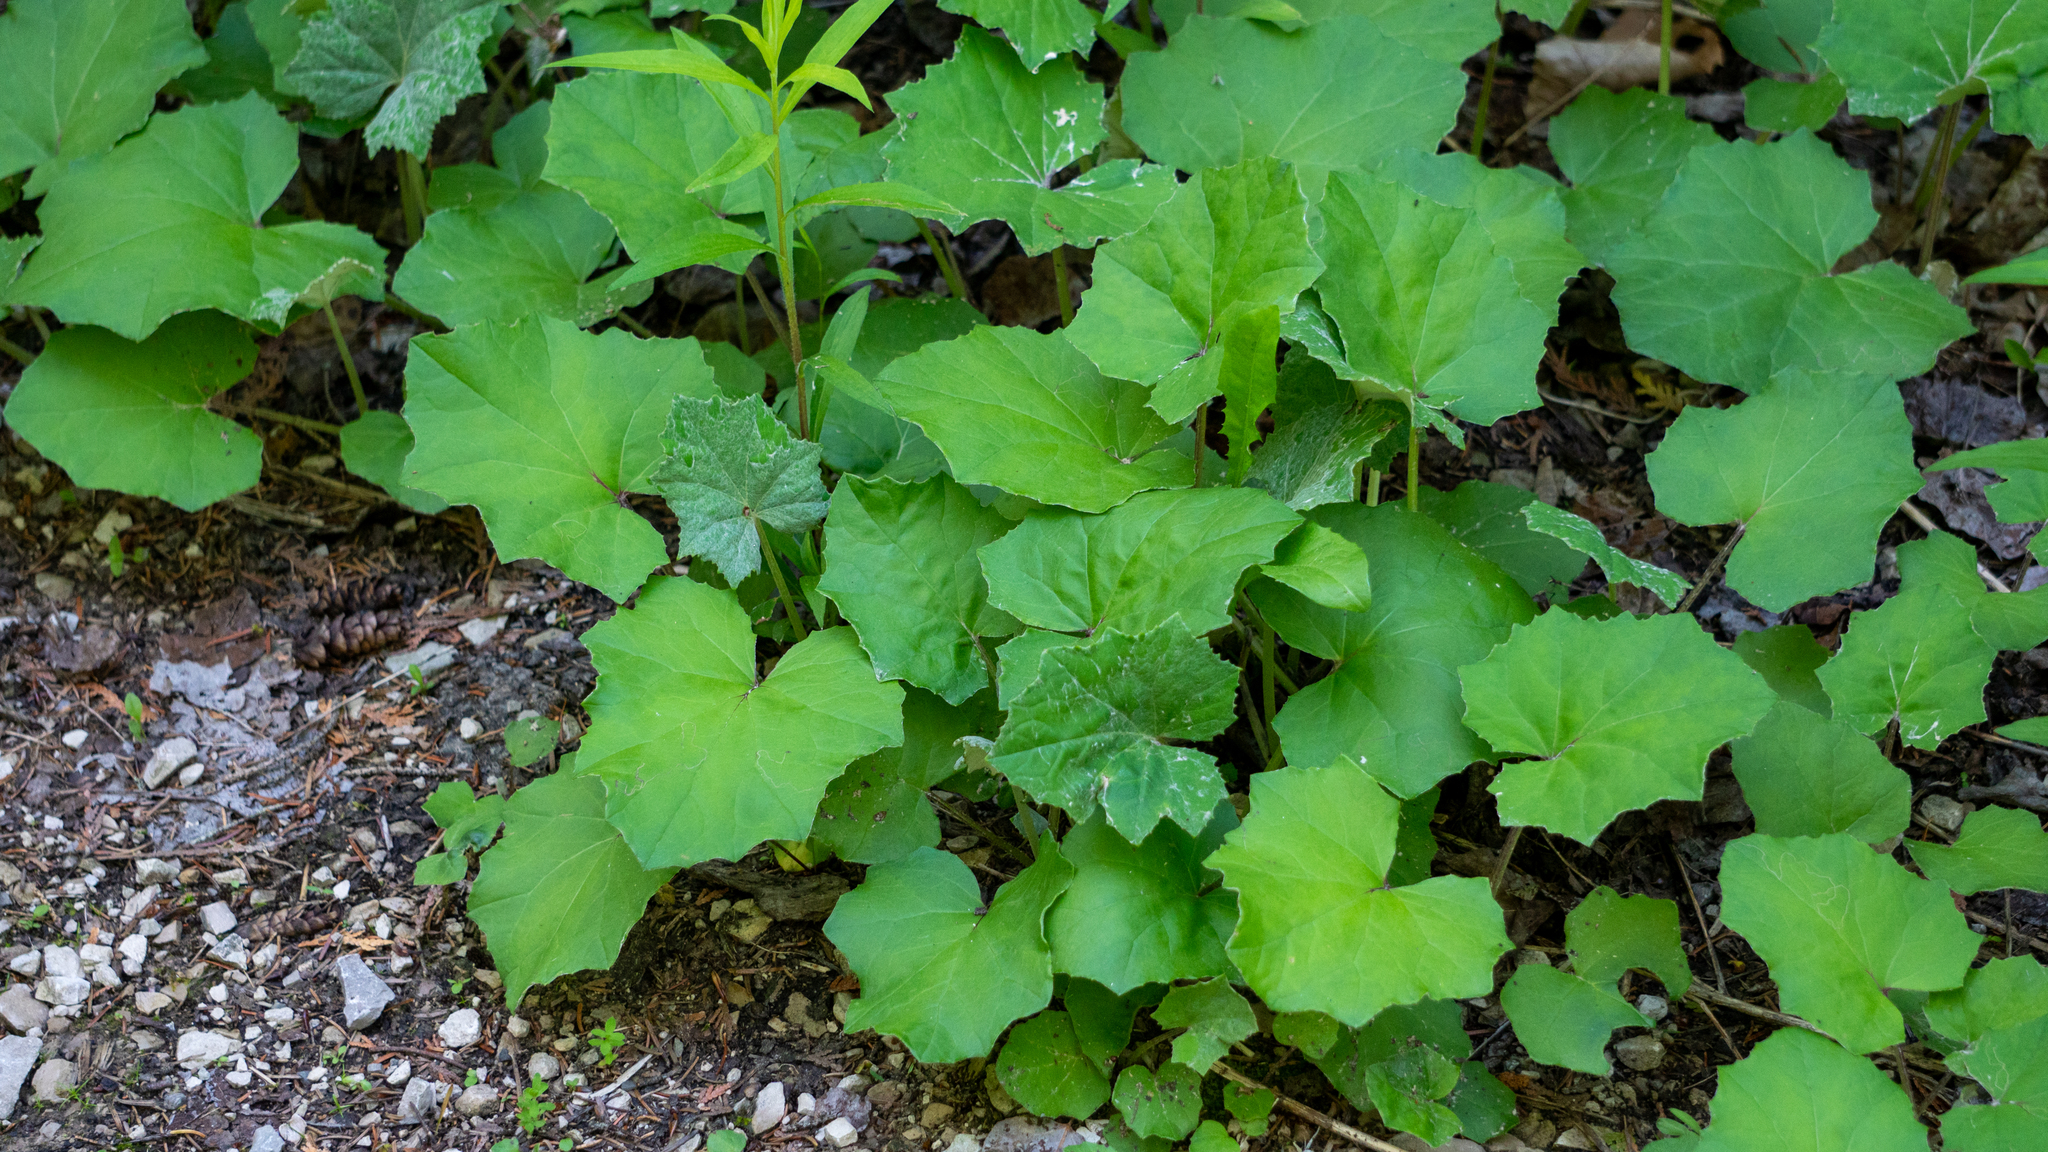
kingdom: Plantae
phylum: Tracheophyta
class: Magnoliopsida
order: Asterales
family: Asteraceae
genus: Tussilago
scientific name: Tussilago farfara
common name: Coltsfoot
